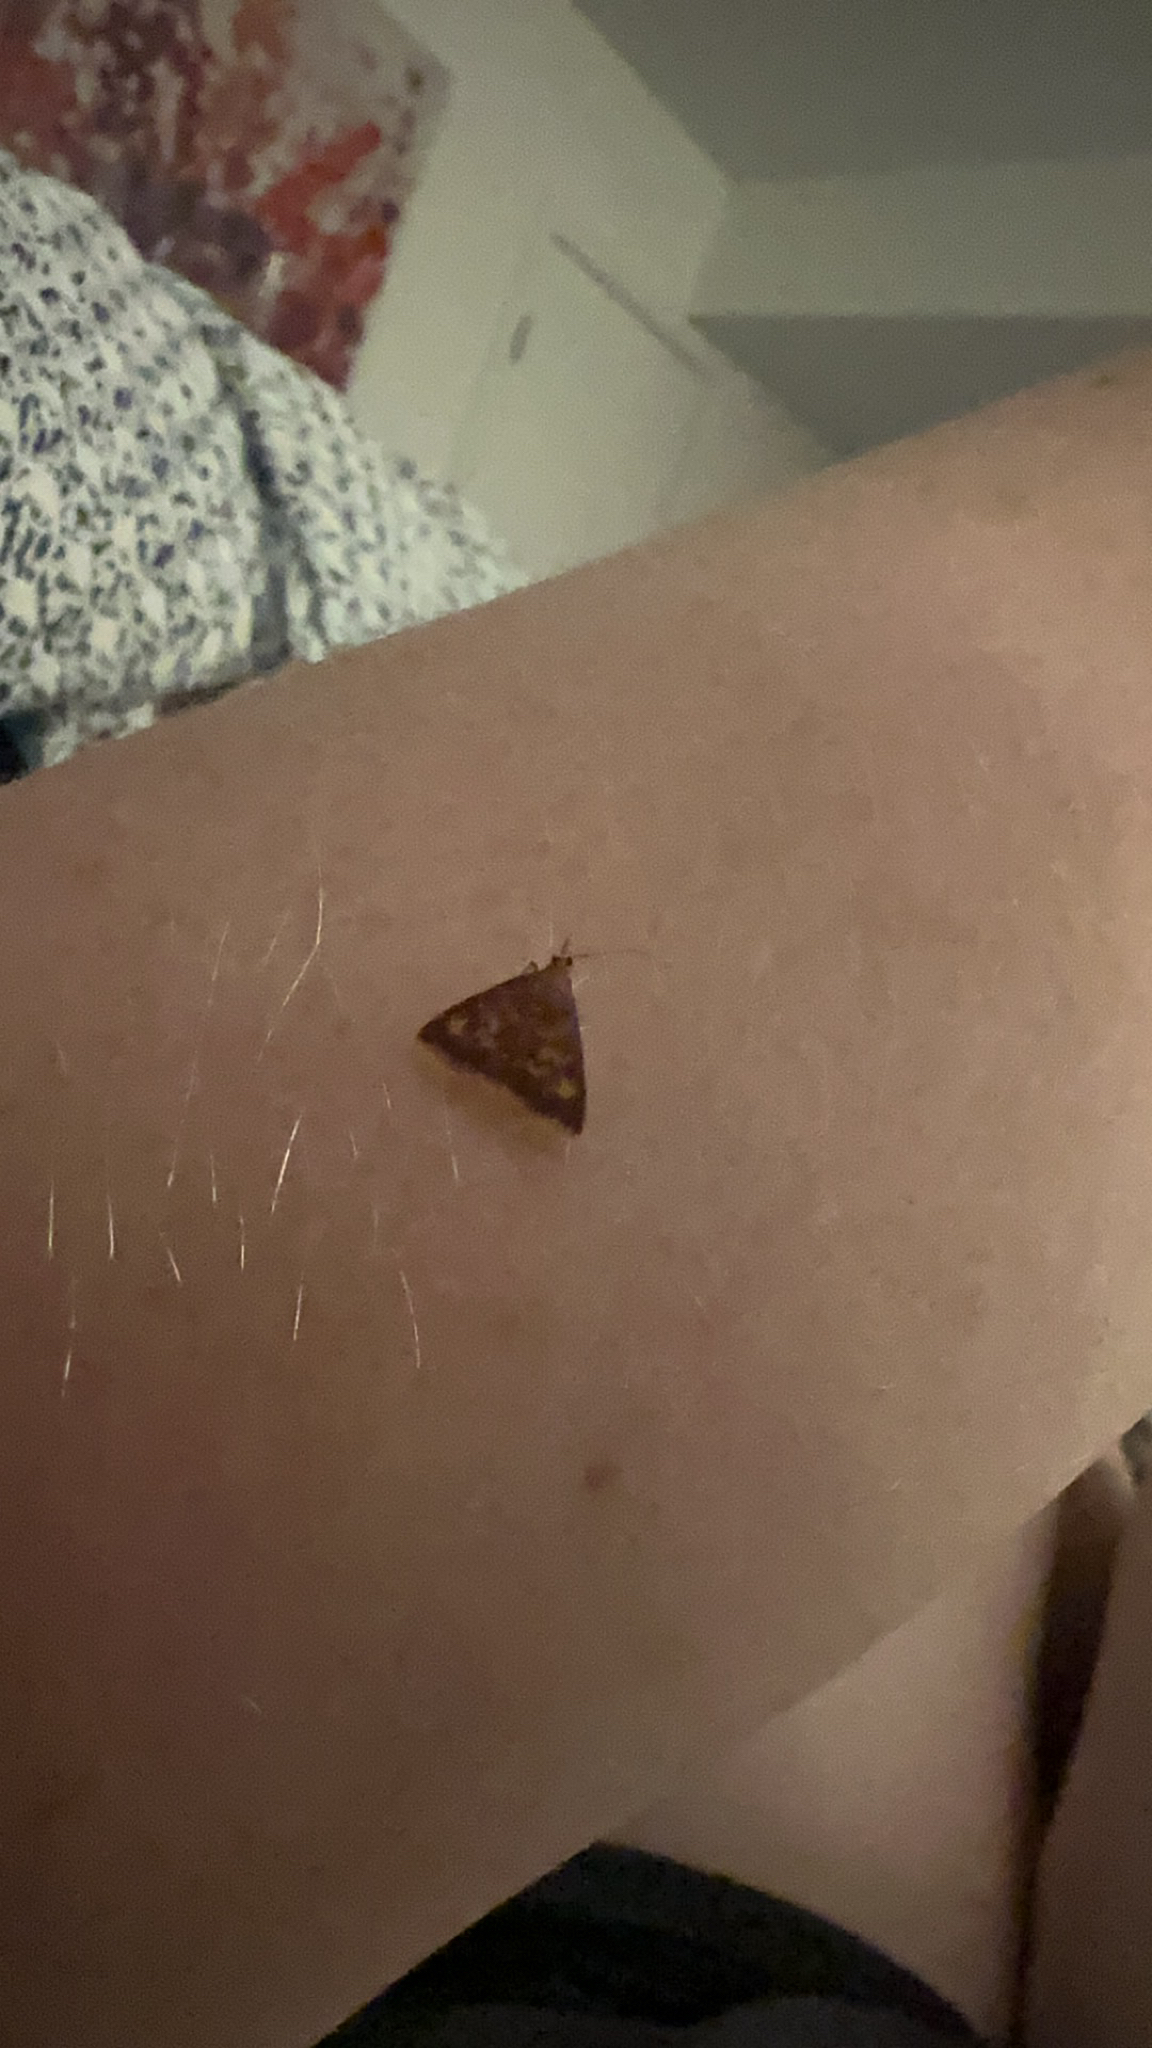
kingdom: Animalia
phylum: Arthropoda
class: Insecta
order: Lepidoptera
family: Crambidae
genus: Pyrausta
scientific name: Pyrausta acrionalis
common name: Mint-loving pyrausta moth
